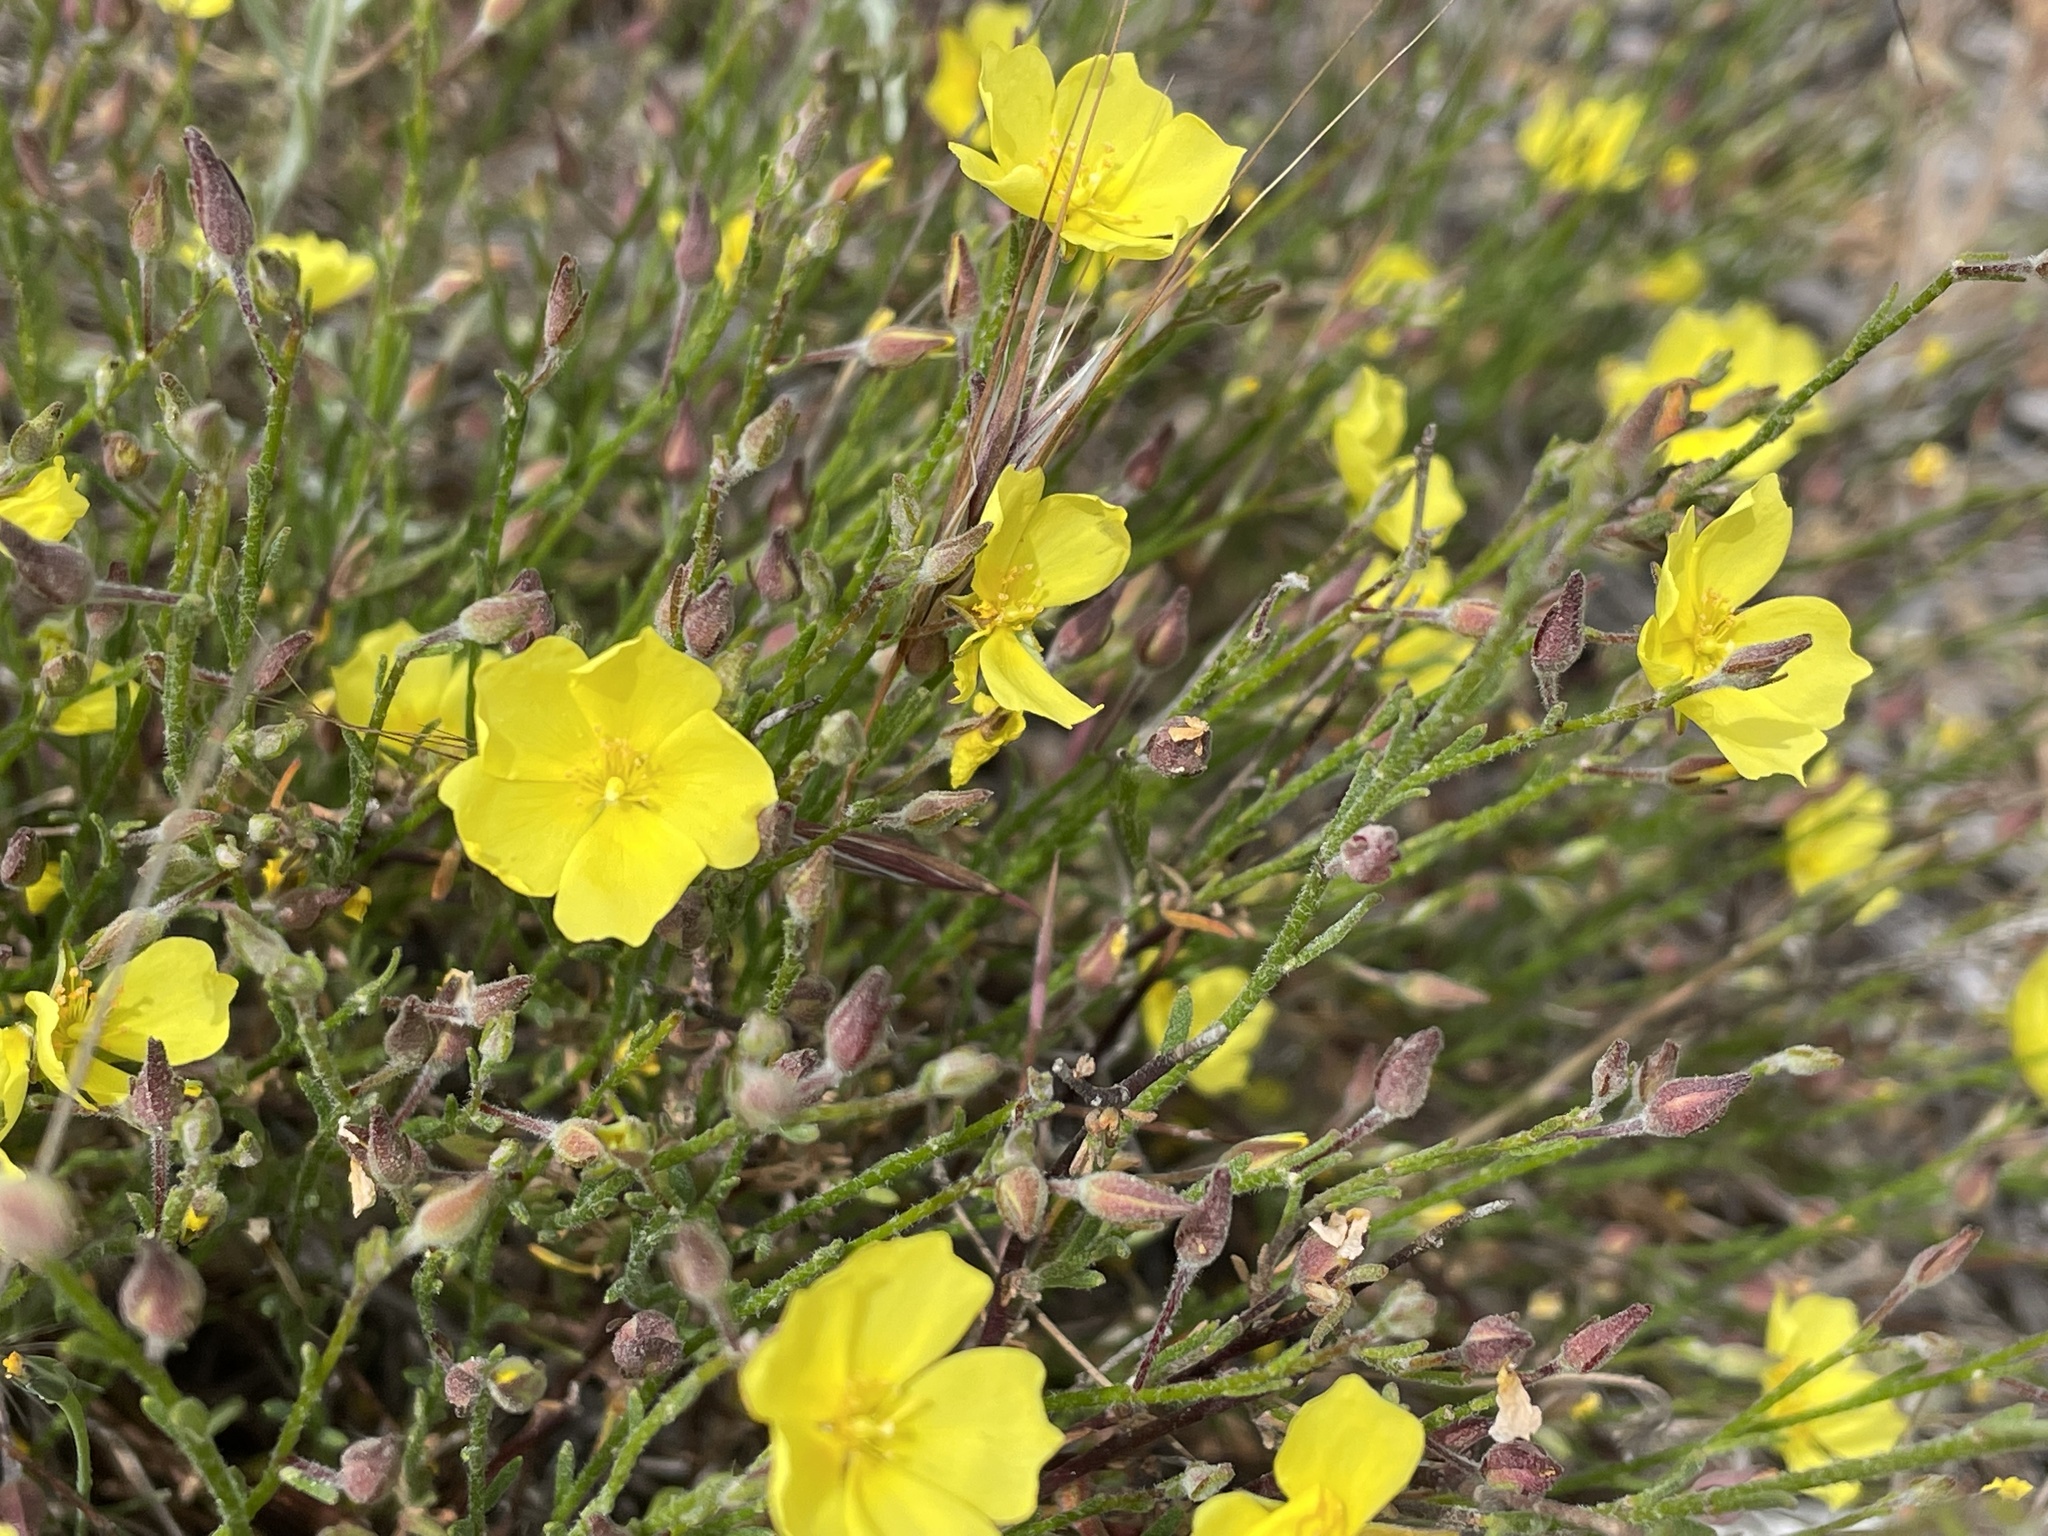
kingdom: Plantae
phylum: Tracheophyta
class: Magnoliopsida
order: Malvales
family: Cistaceae
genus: Crocanthemum
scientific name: Crocanthemum scoparium
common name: Broom-rose
